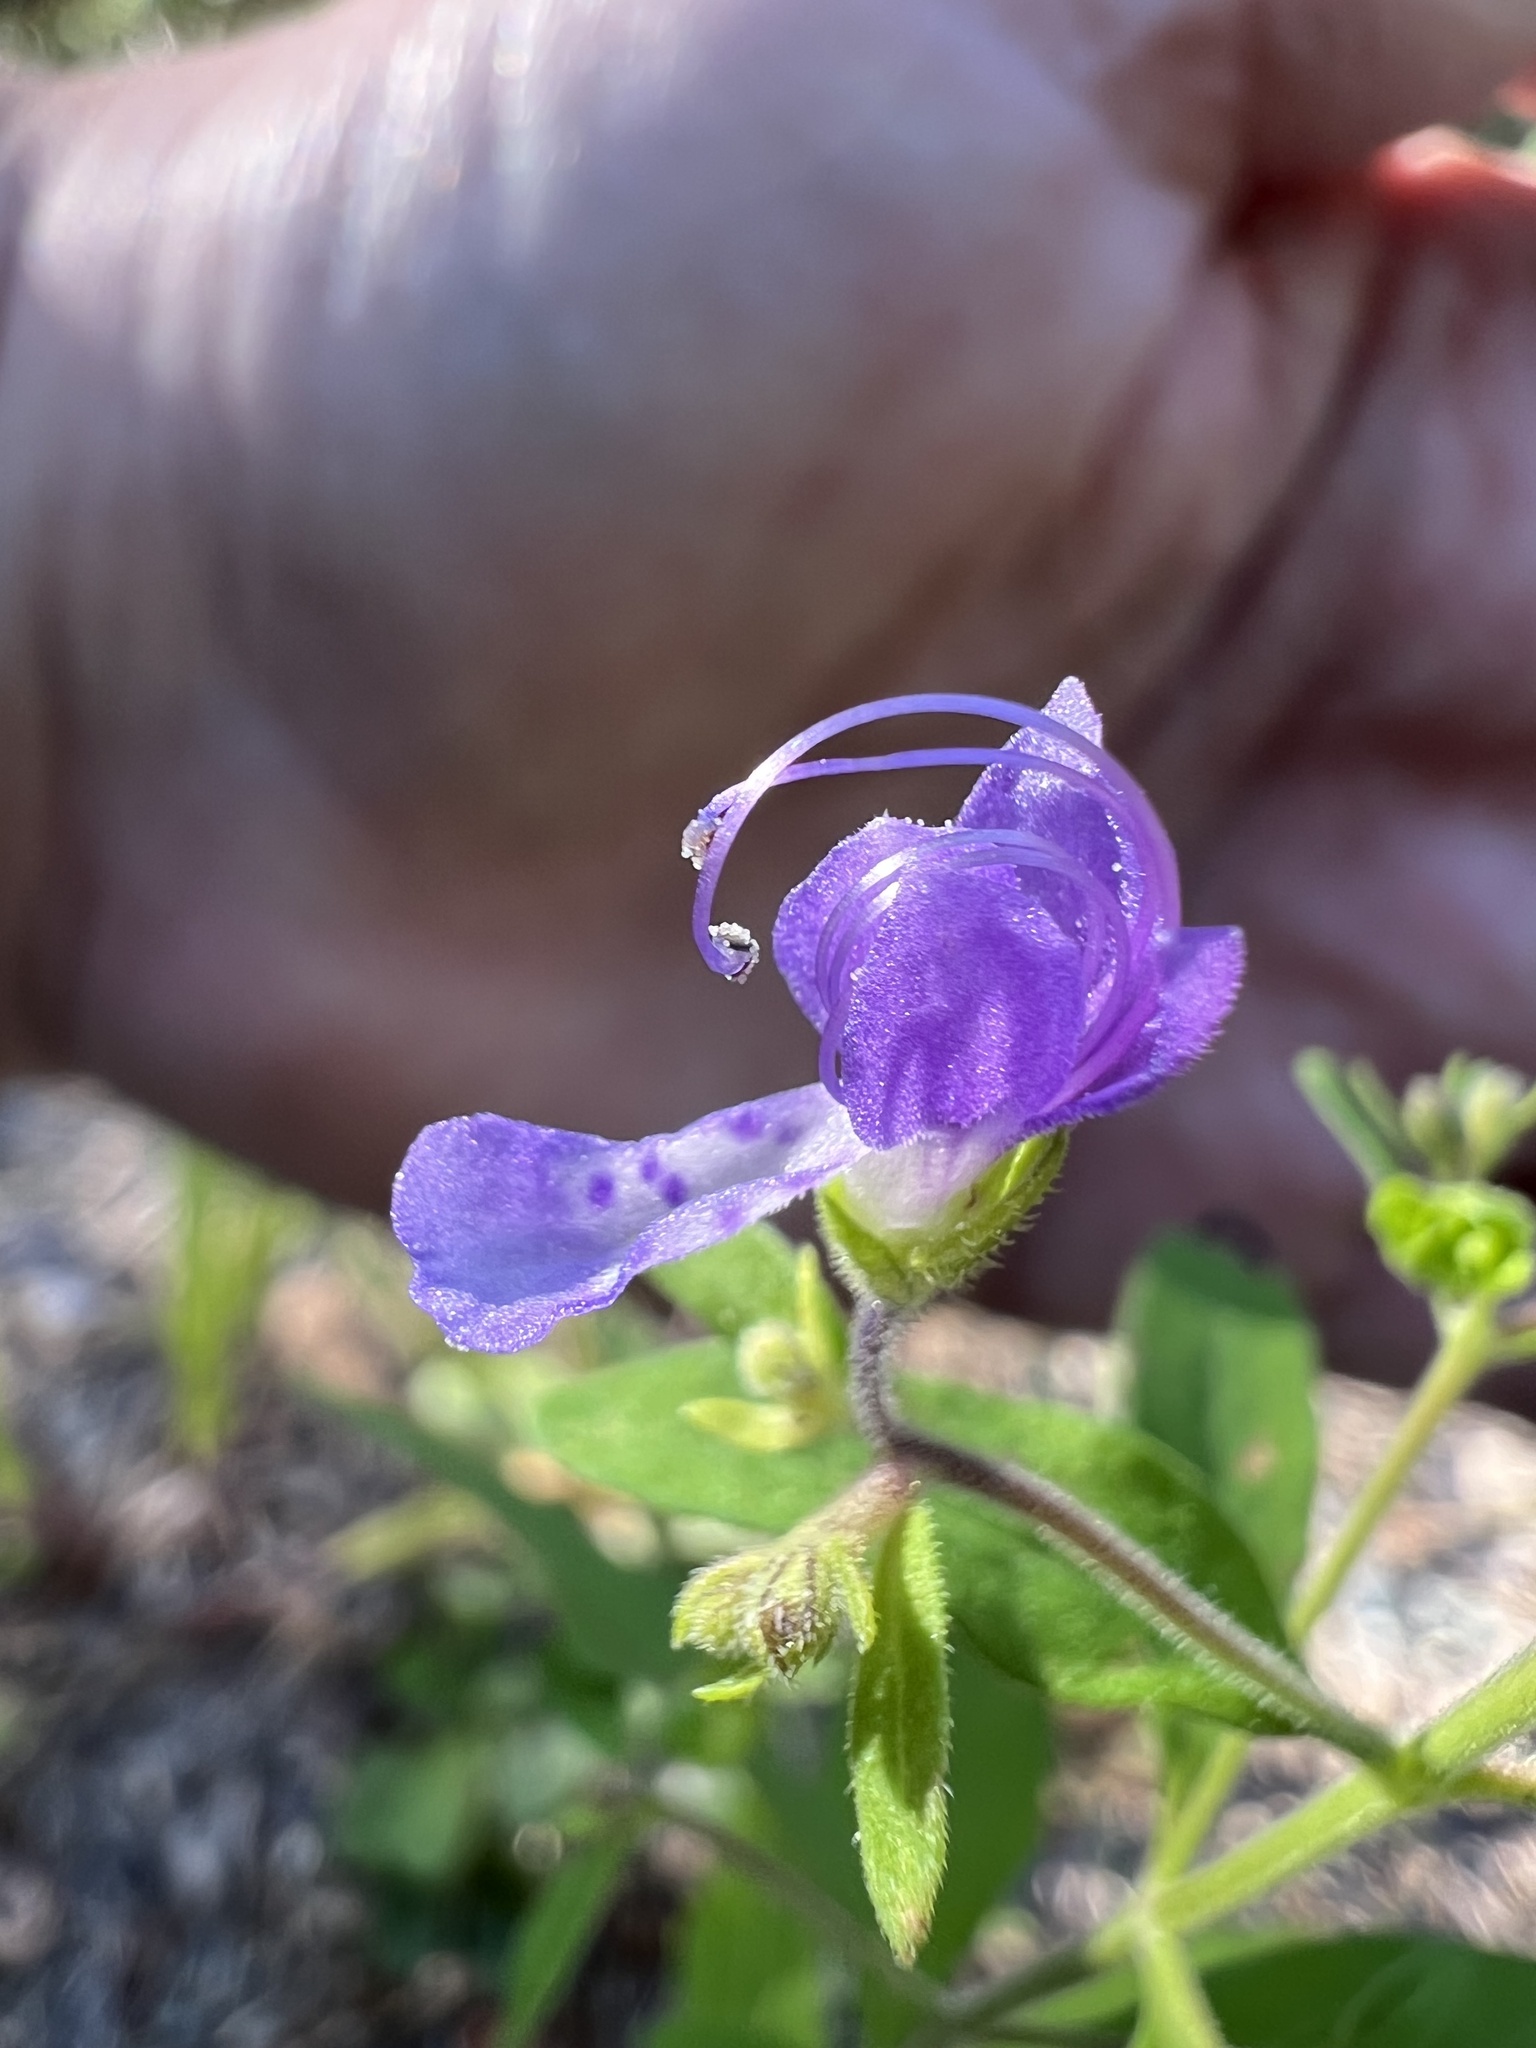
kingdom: Plantae
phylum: Tracheophyta
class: Magnoliopsida
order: Lamiales
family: Lamiaceae
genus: Trichostema
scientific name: Trichostema dichotomum
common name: Bastard pennyroyal
